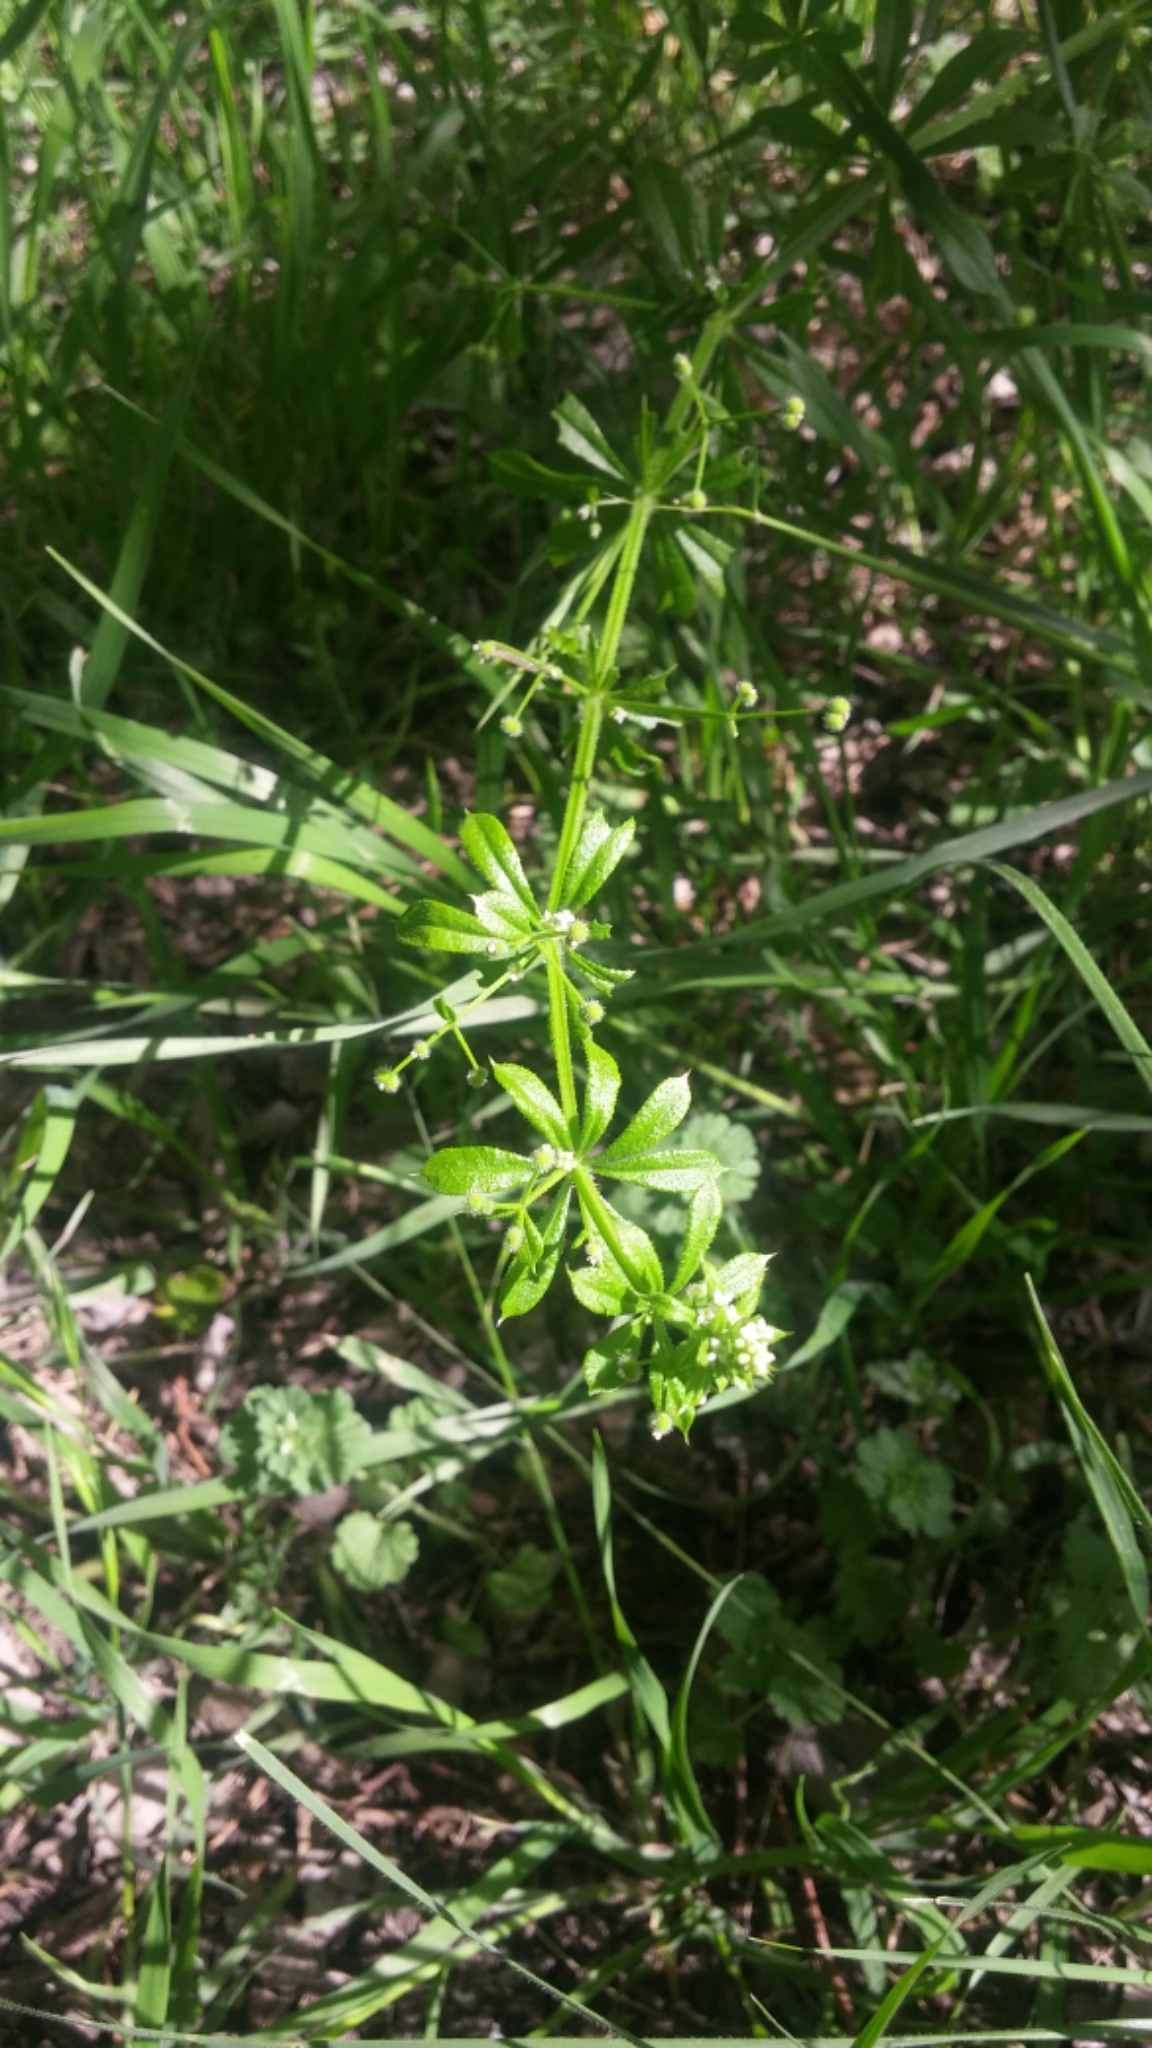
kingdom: Plantae
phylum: Tracheophyta
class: Magnoliopsida
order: Gentianales
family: Rubiaceae
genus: Galium
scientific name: Galium aparine
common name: Cleavers
